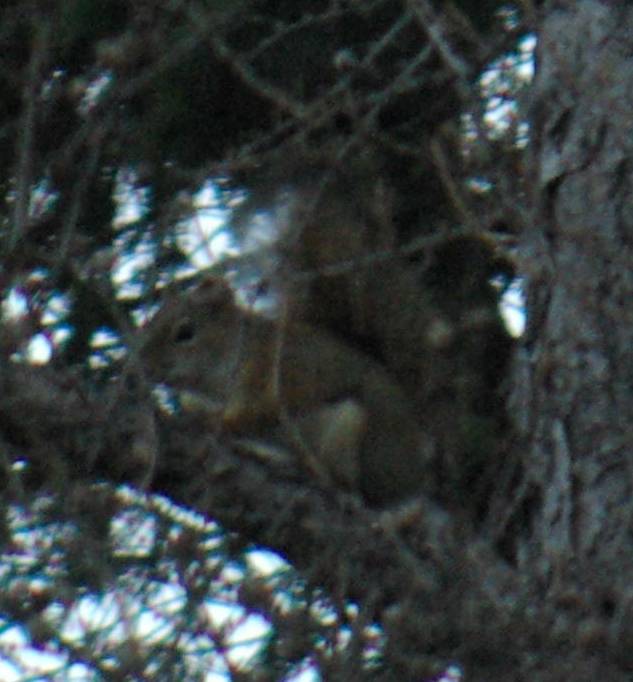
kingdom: Animalia
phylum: Chordata
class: Mammalia
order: Rodentia
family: Sciuridae
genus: Tamiasciurus
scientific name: Tamiasciurus hudsonicus
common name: Red squirrel
